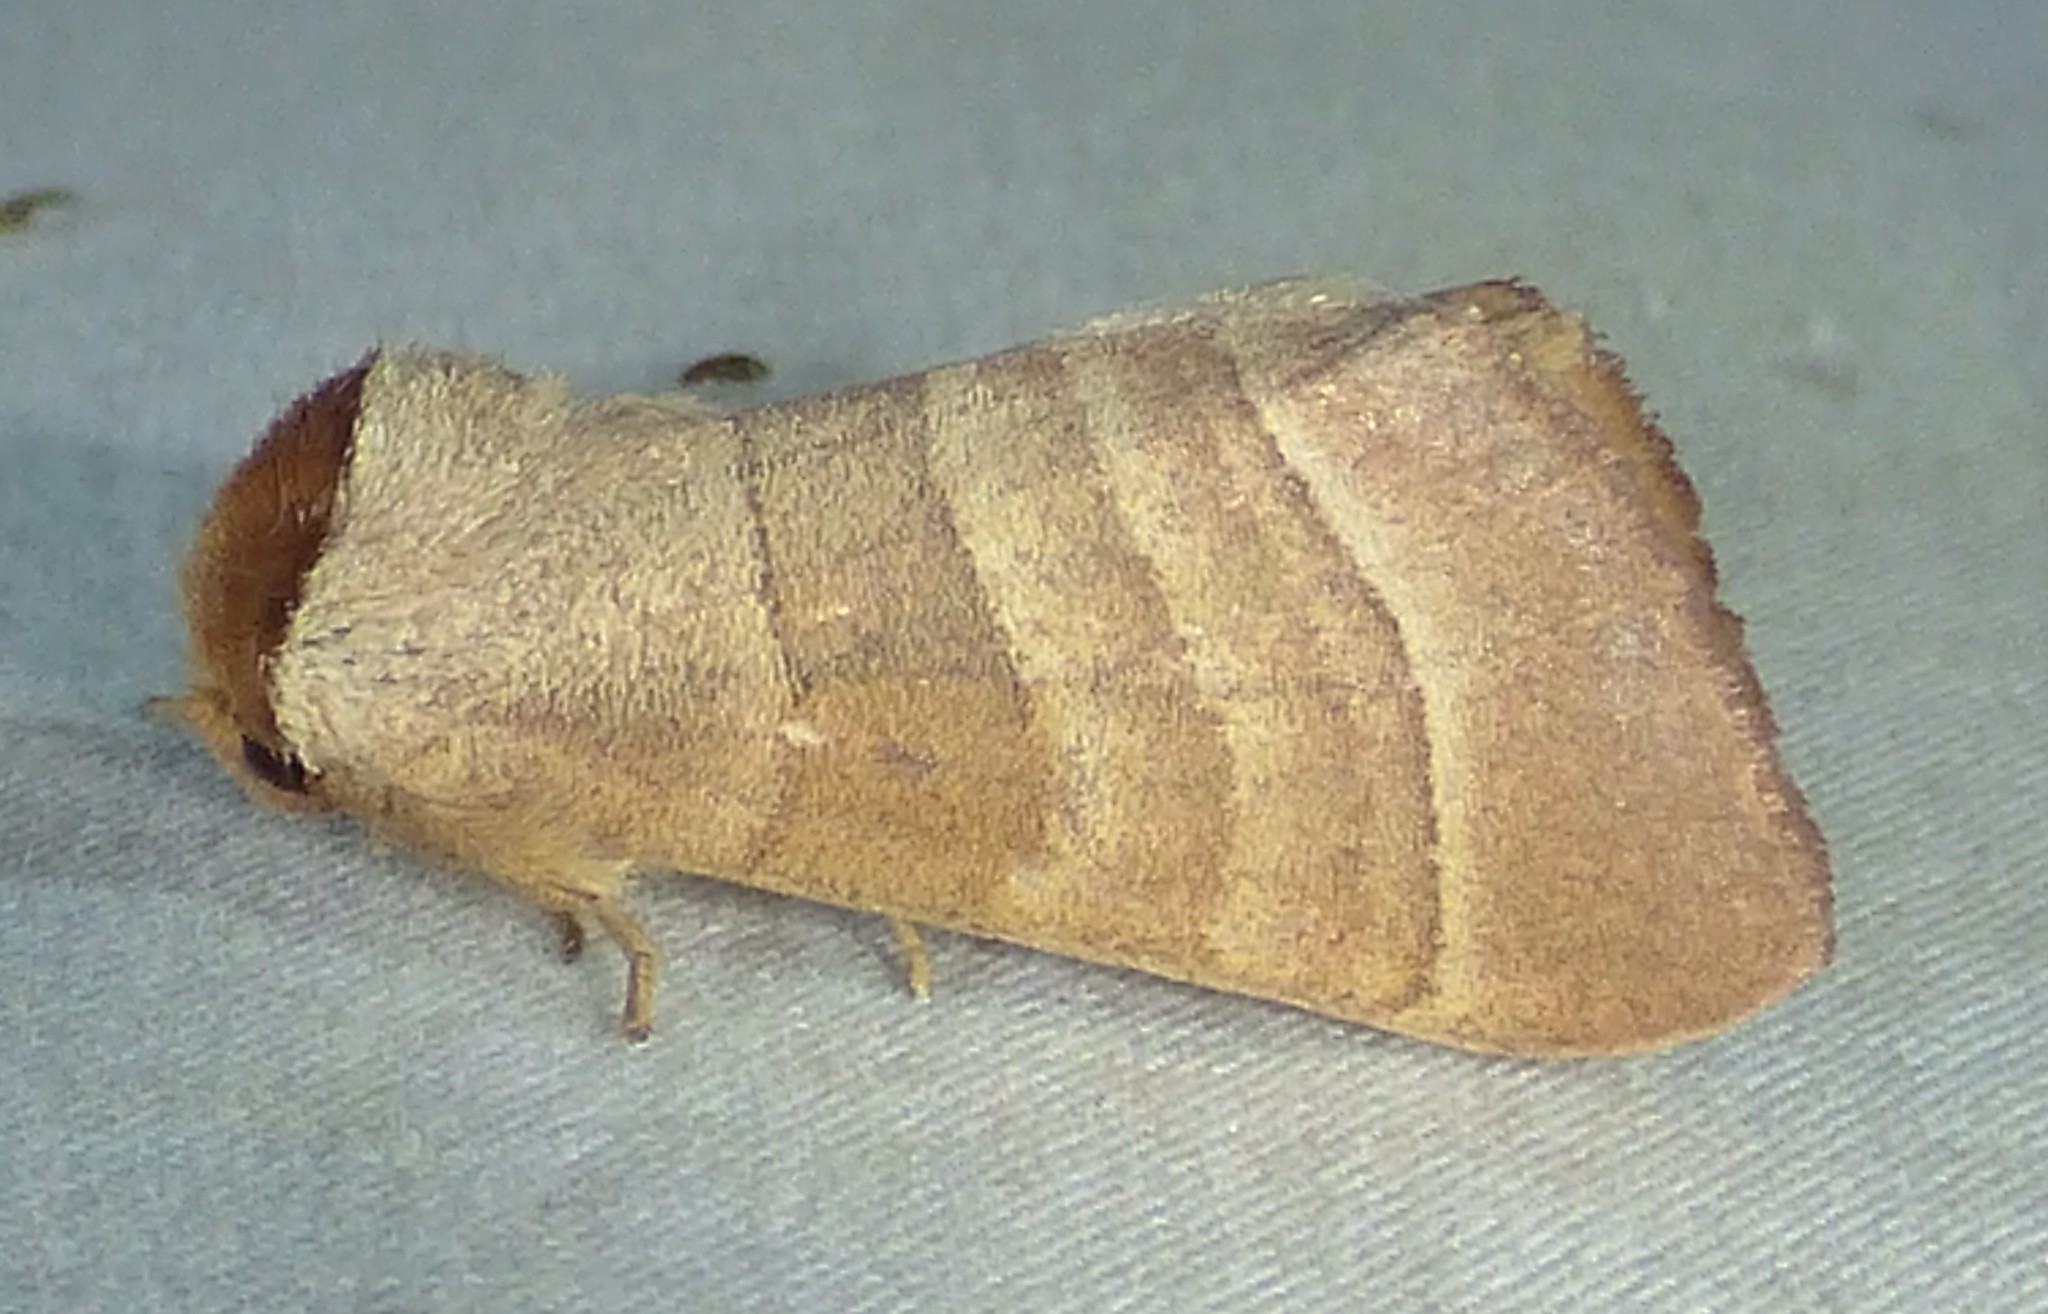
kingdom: Animalia
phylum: Arthropoda
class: Insecta
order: Lepidoptera
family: Notodontidae
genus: Datana
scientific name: Datana integerrima
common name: Walnut caterpillar
